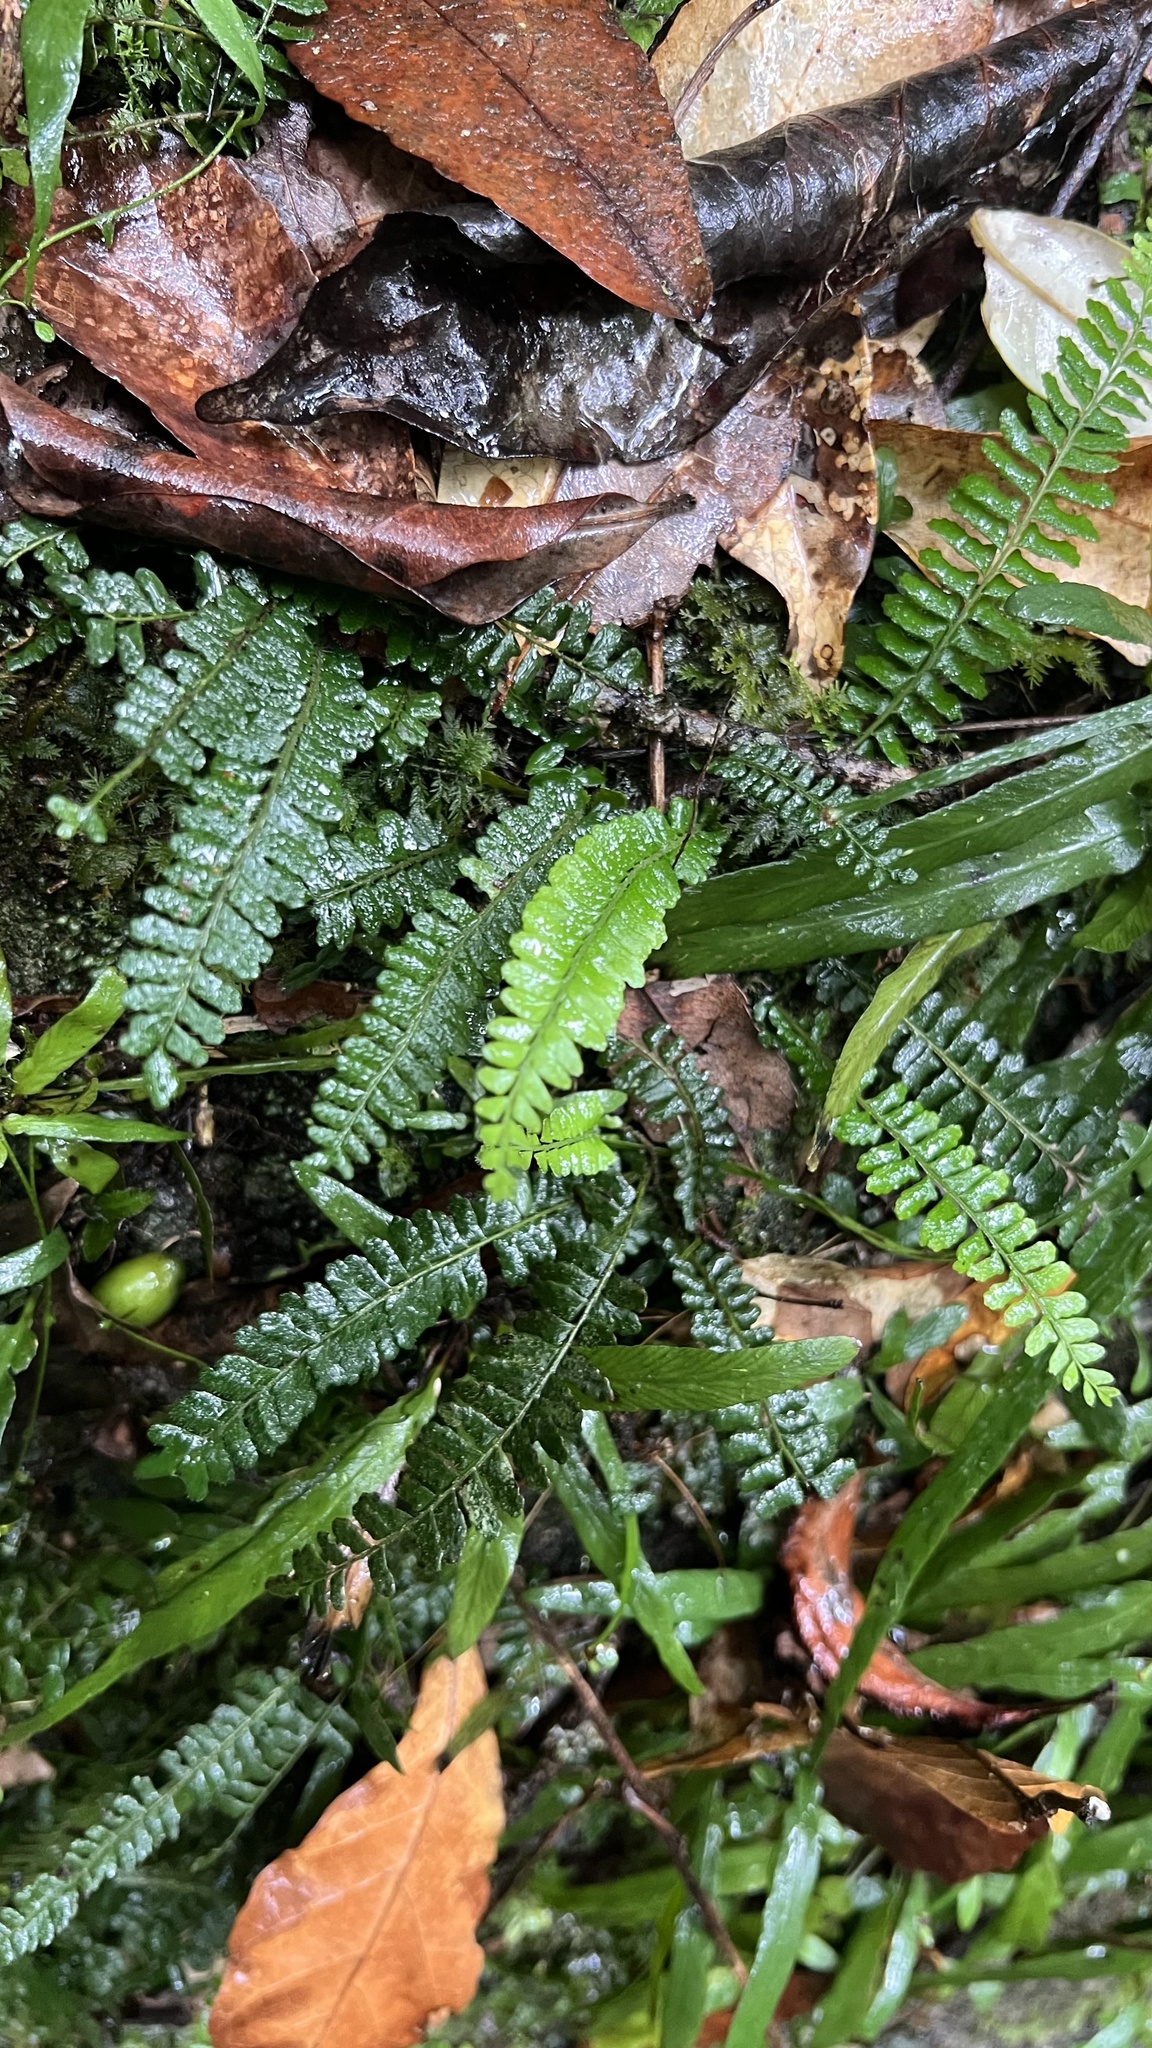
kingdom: Plantae
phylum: Tracheophyta
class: Polypodiopsida
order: Polypodiales
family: Tectariaceae
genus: Arthropteris
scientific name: Arthropteris beckleri
